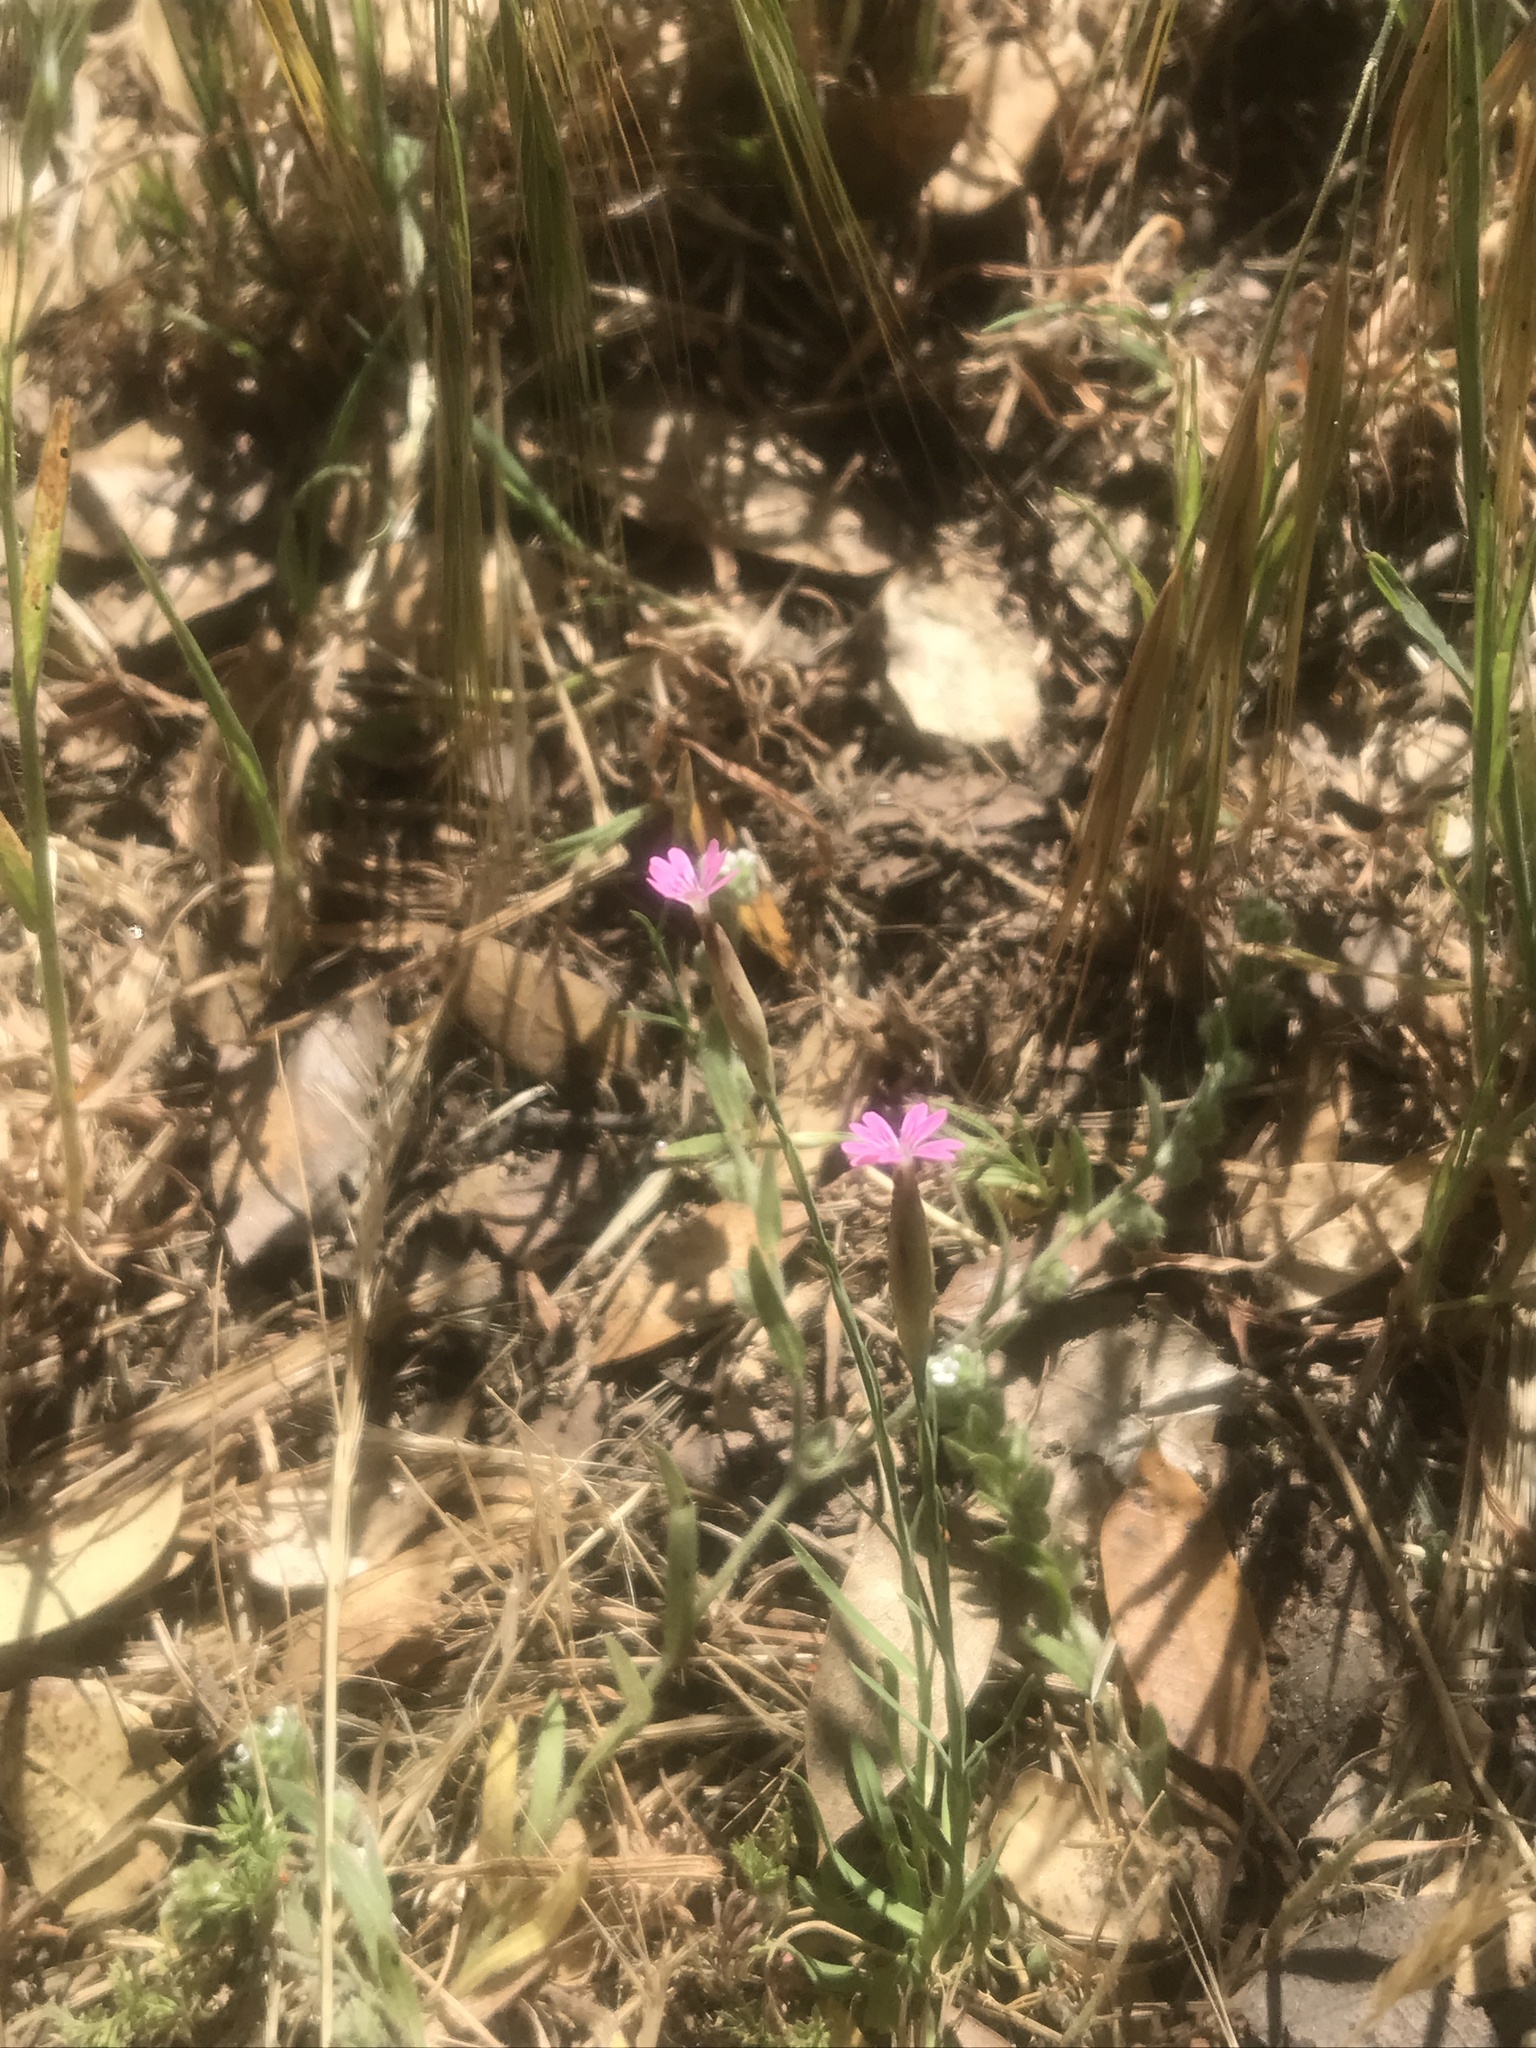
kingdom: Plantae
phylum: Tracheophyta
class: Magnoliopsida
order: Caryophyllales
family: Caryophyllaceae
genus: Petrorhagia
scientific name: Petrorhagia dubia
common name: Hairypink
